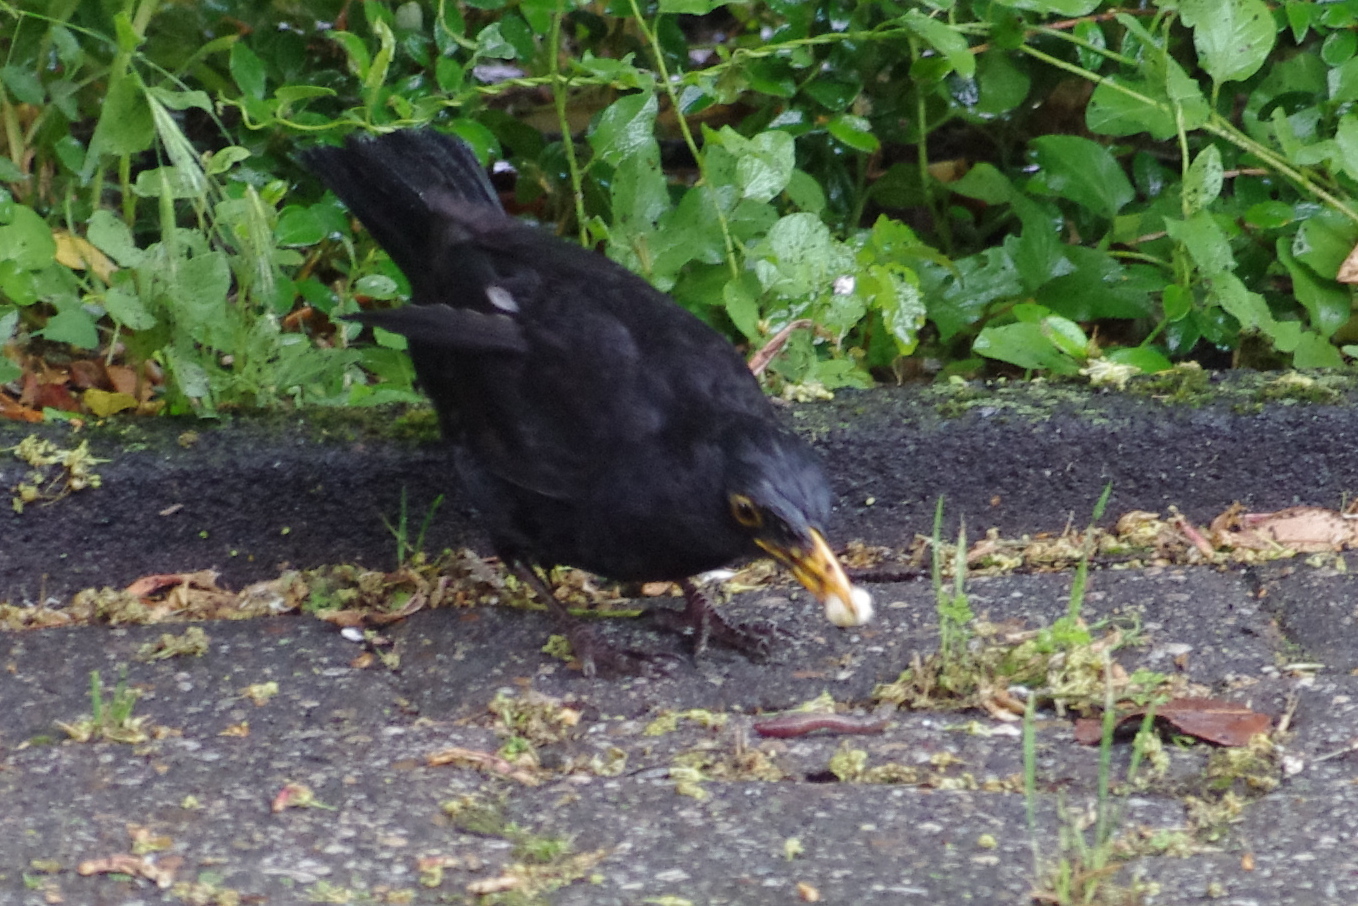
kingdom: Animalia
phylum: Chordata
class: Aves
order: Passeriformes
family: Turdidae
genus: Turdus
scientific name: Turdus merula
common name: Common blackbird
